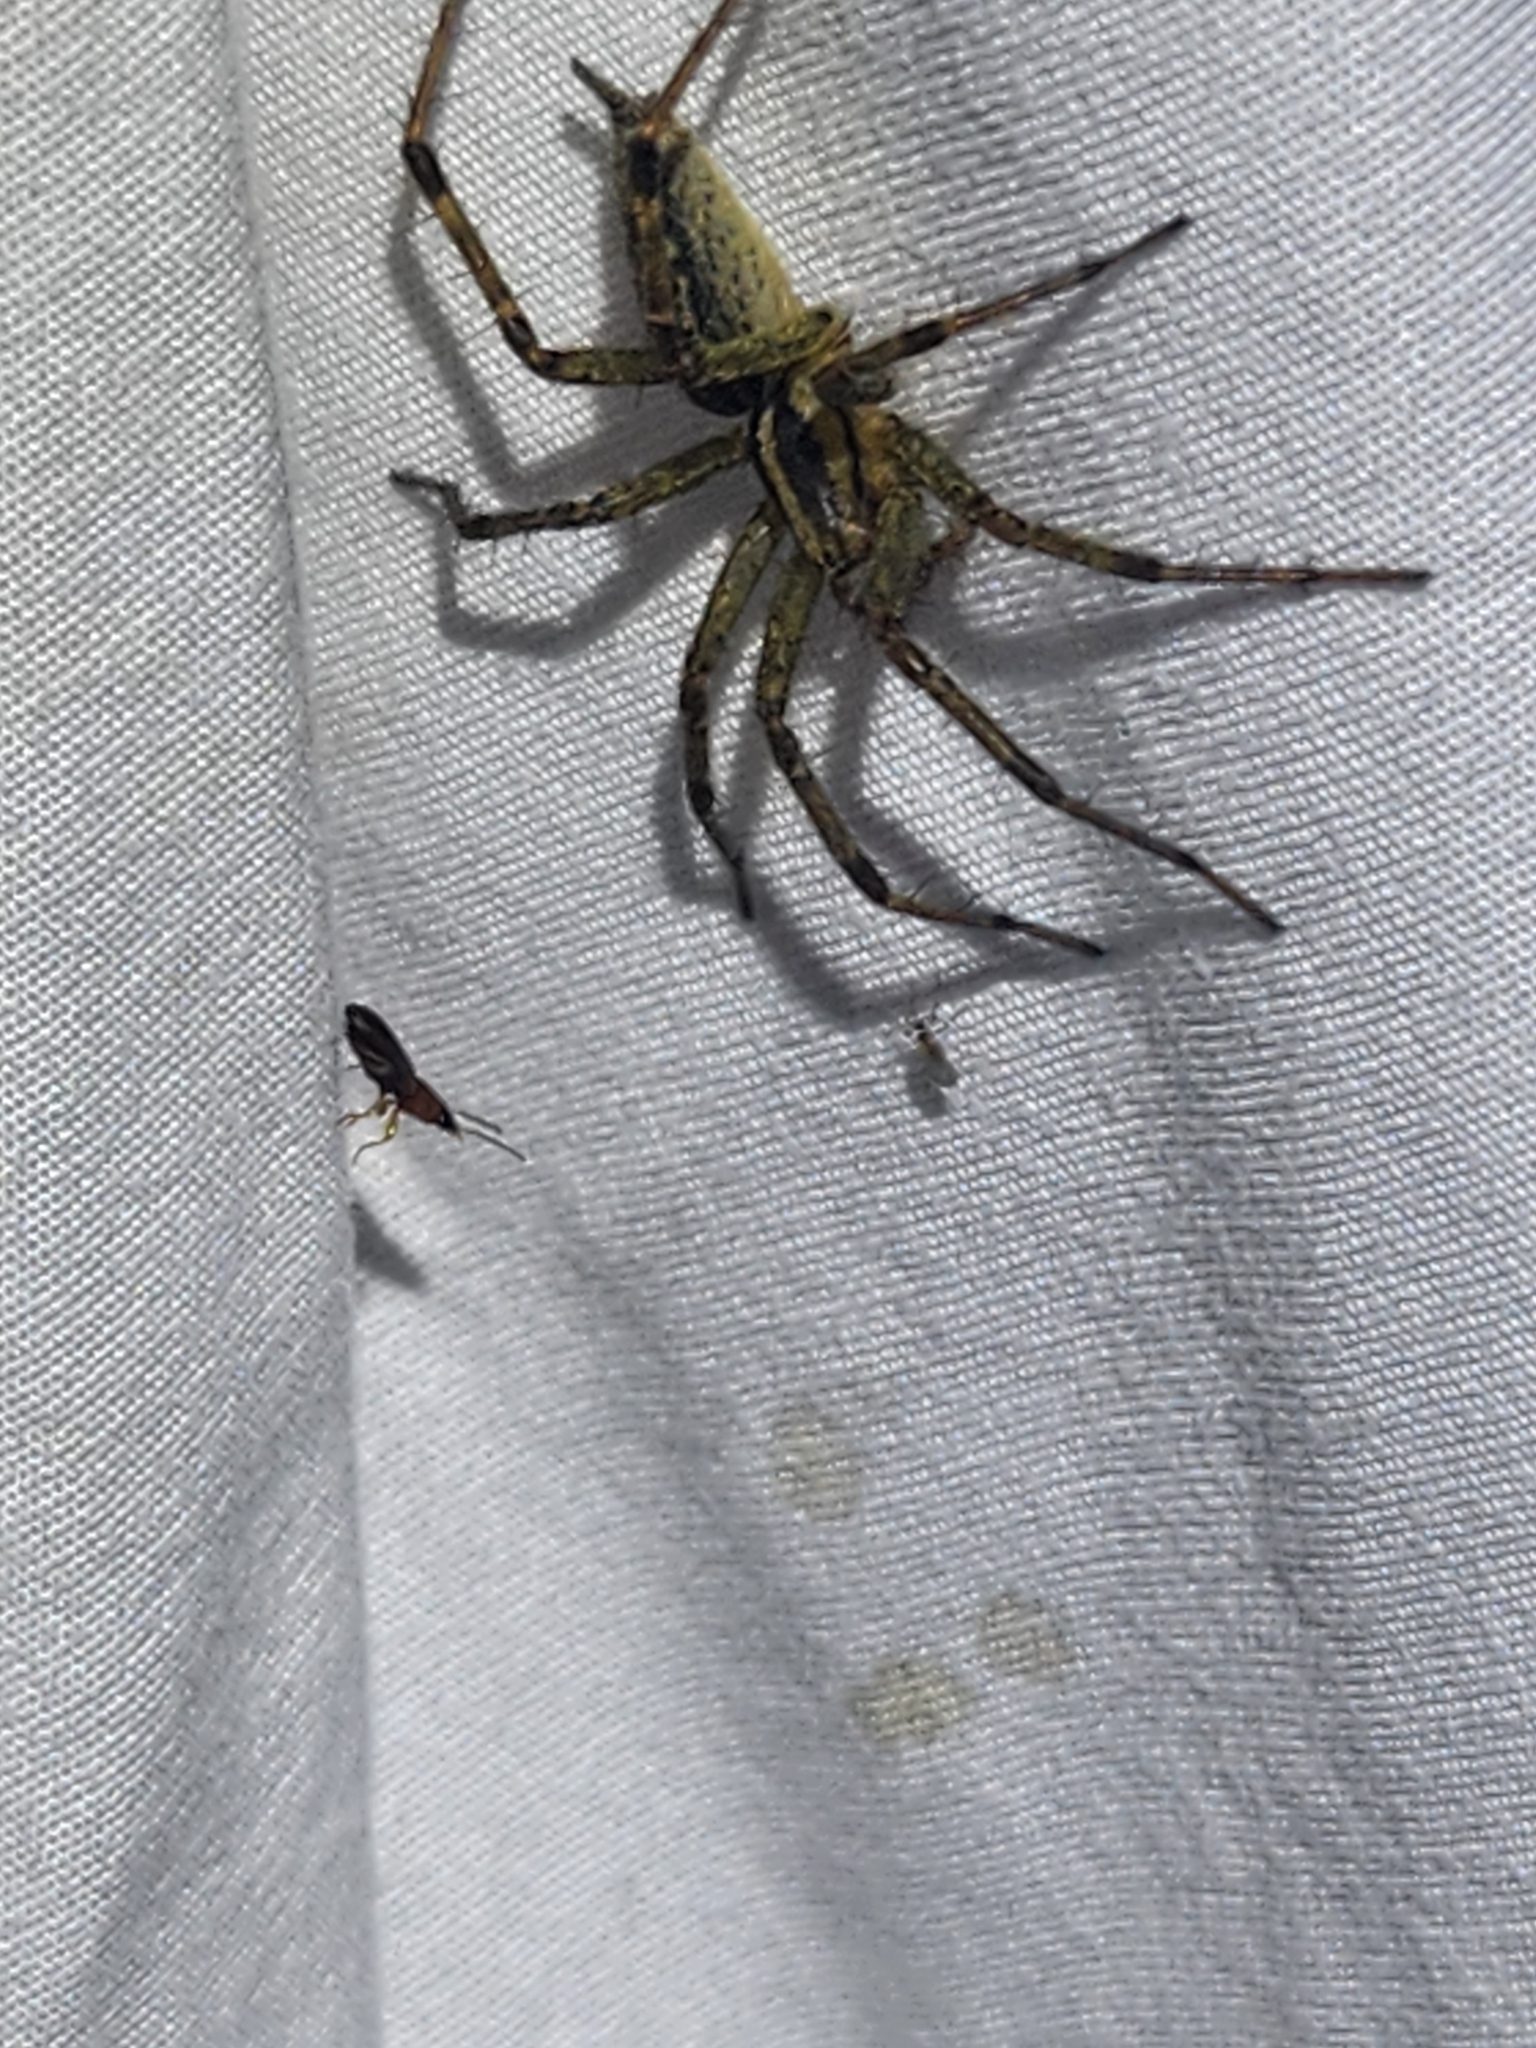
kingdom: Animalia
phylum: Arthropoda
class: Arachnida
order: Araneae
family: Agelenidae
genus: Agelenopsis
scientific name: Agelenopsis
